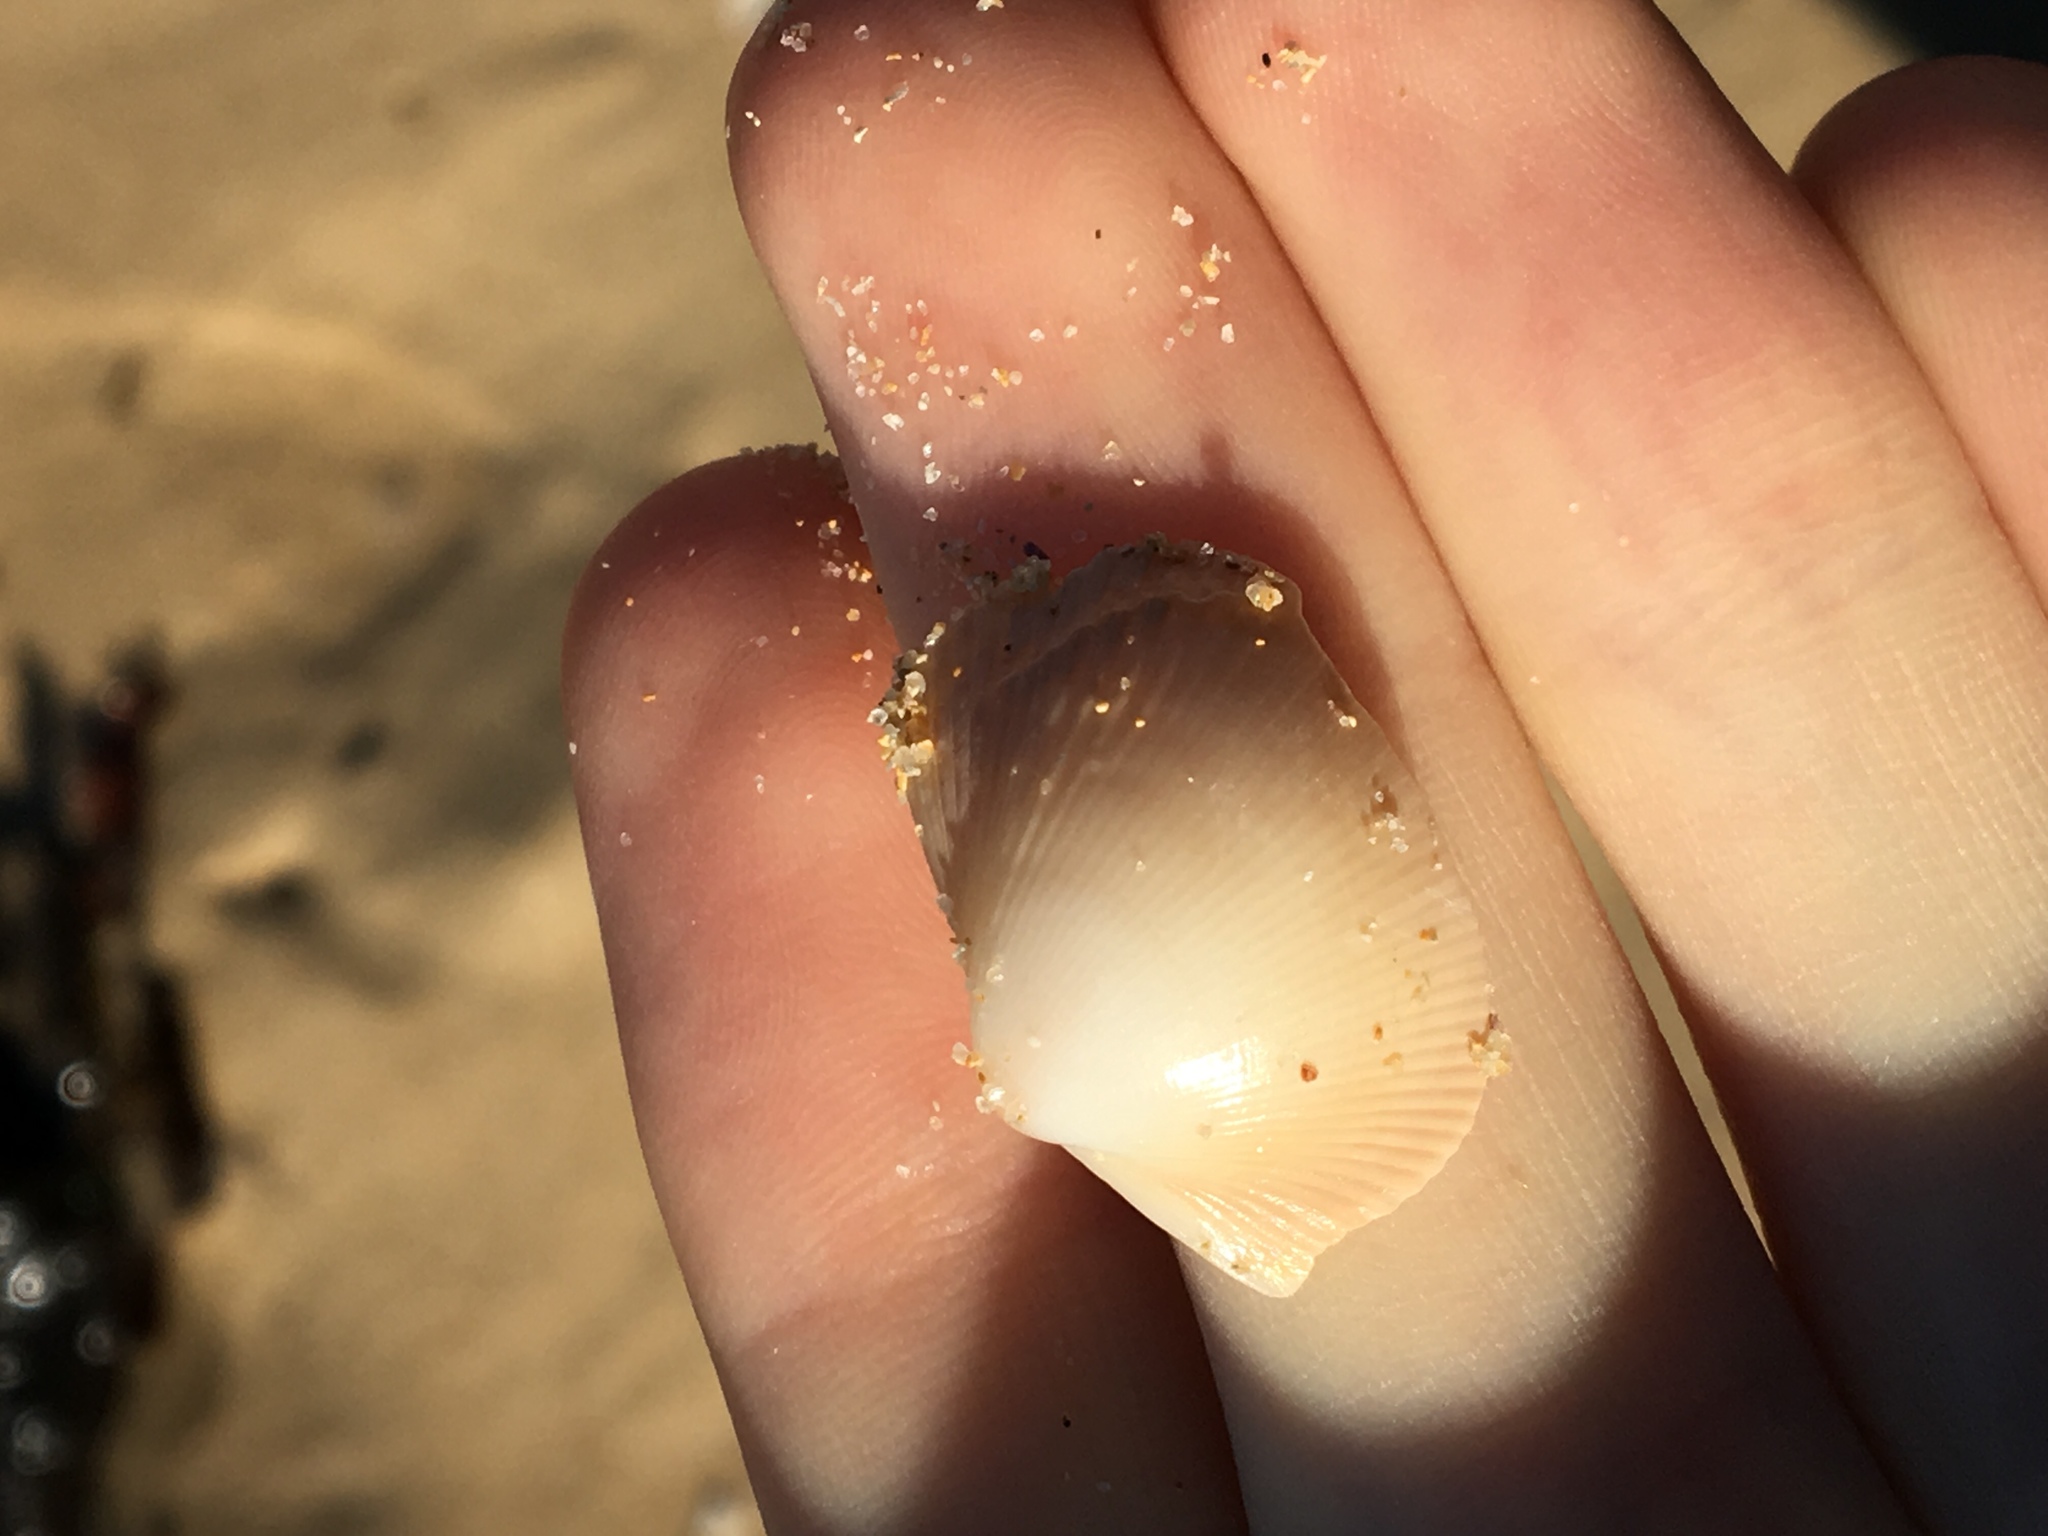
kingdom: Animalia
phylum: Mollusca
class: Bivalvia
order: Cardiida
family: Cardiidae
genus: Fulvia
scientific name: Fulvia tenuicostata
